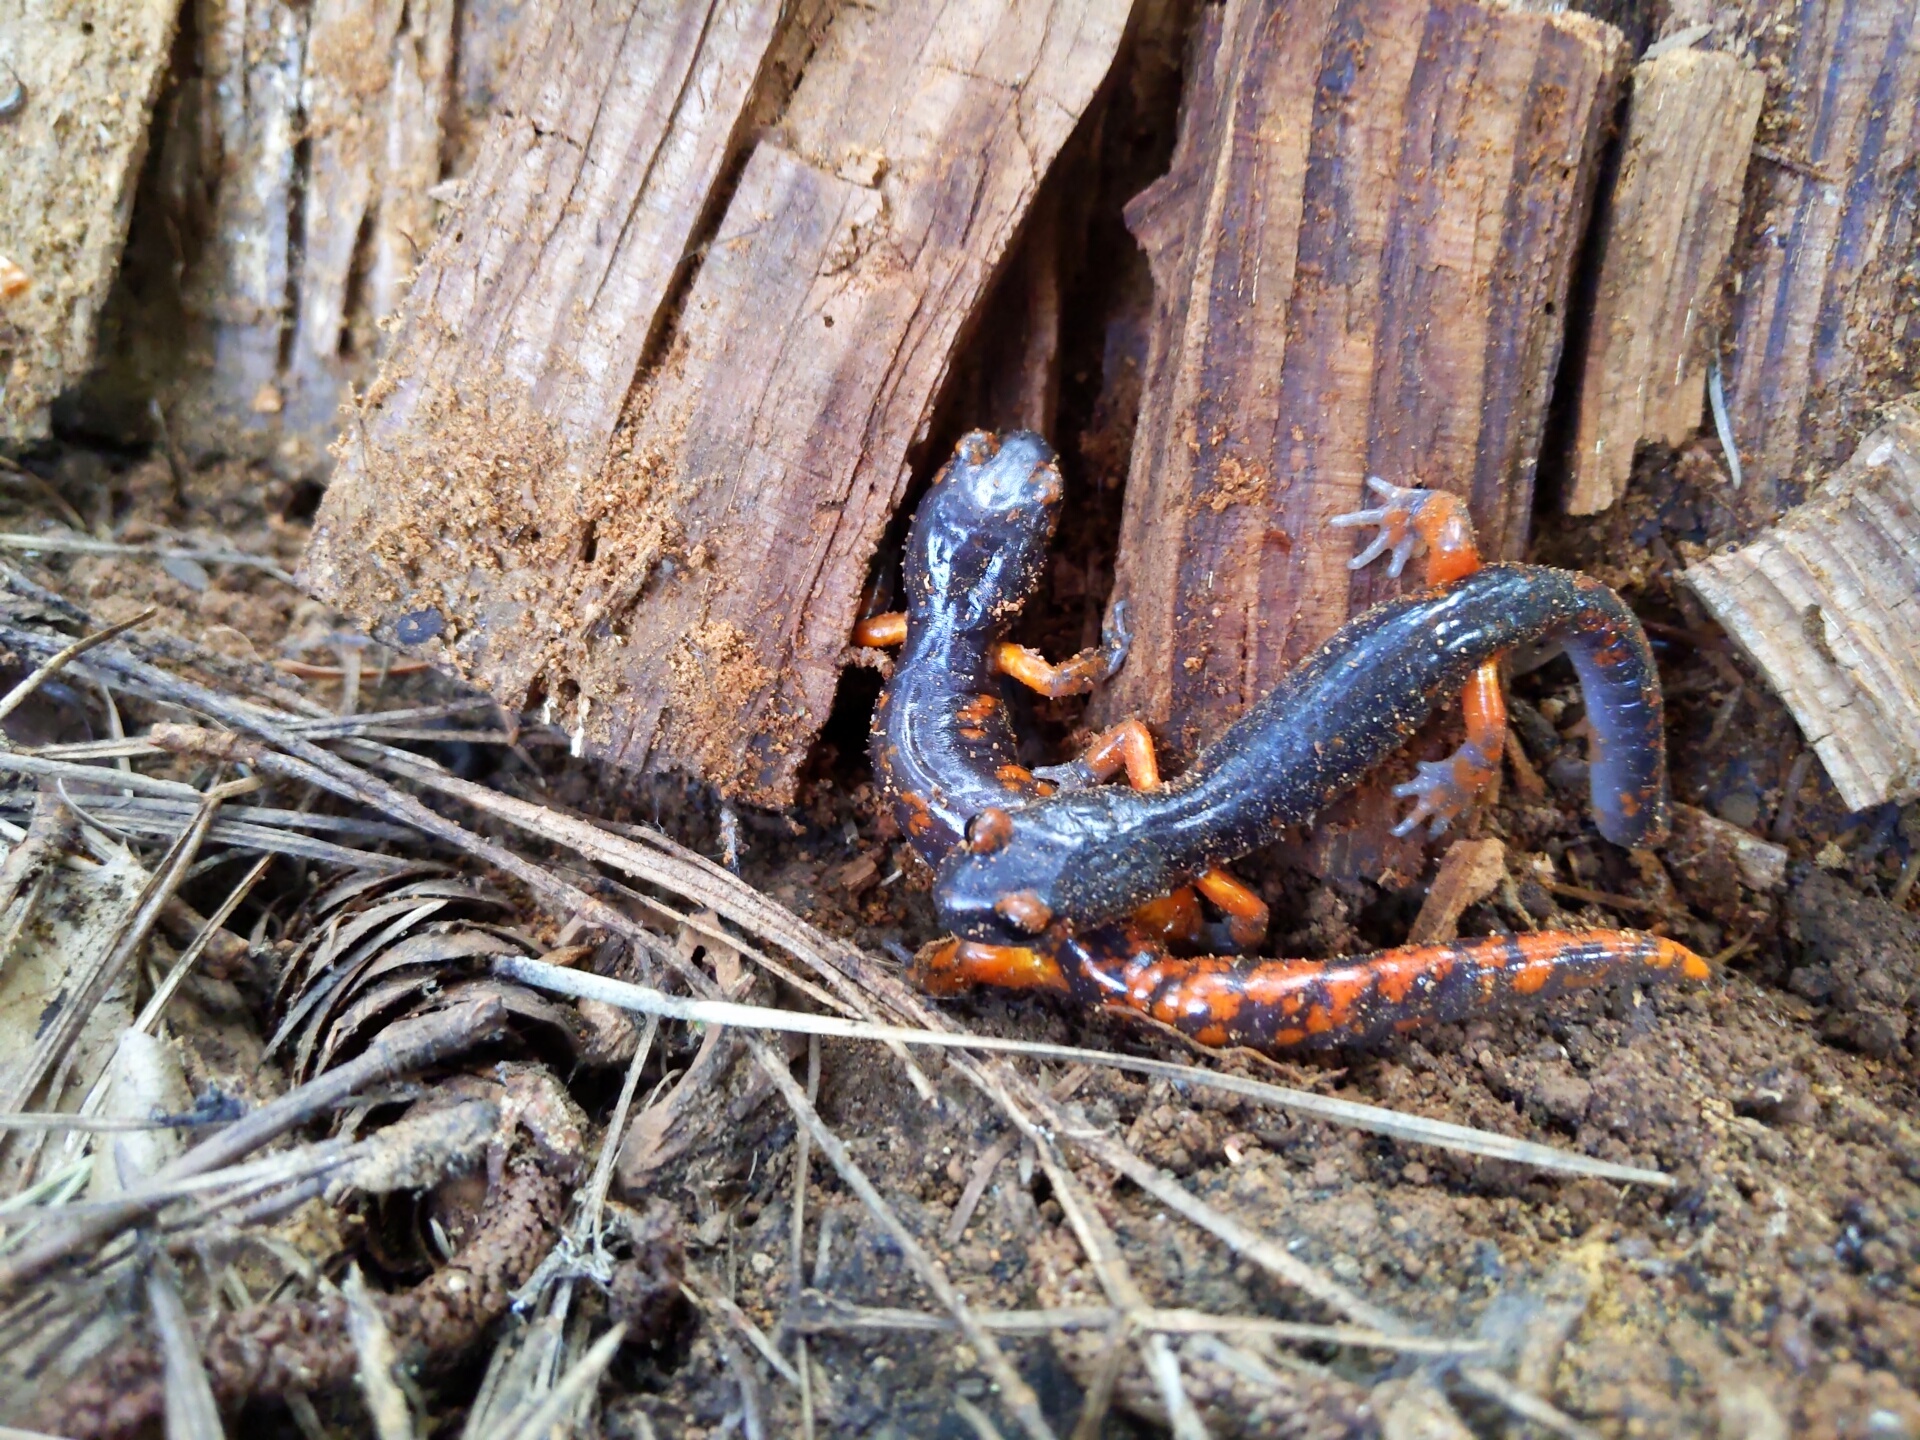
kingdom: Animalia
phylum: Chordata
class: Amphibia
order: Caudata
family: Plethodontidae
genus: Ensatina
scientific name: Ensatina eschscholtzii
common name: Ensatina
